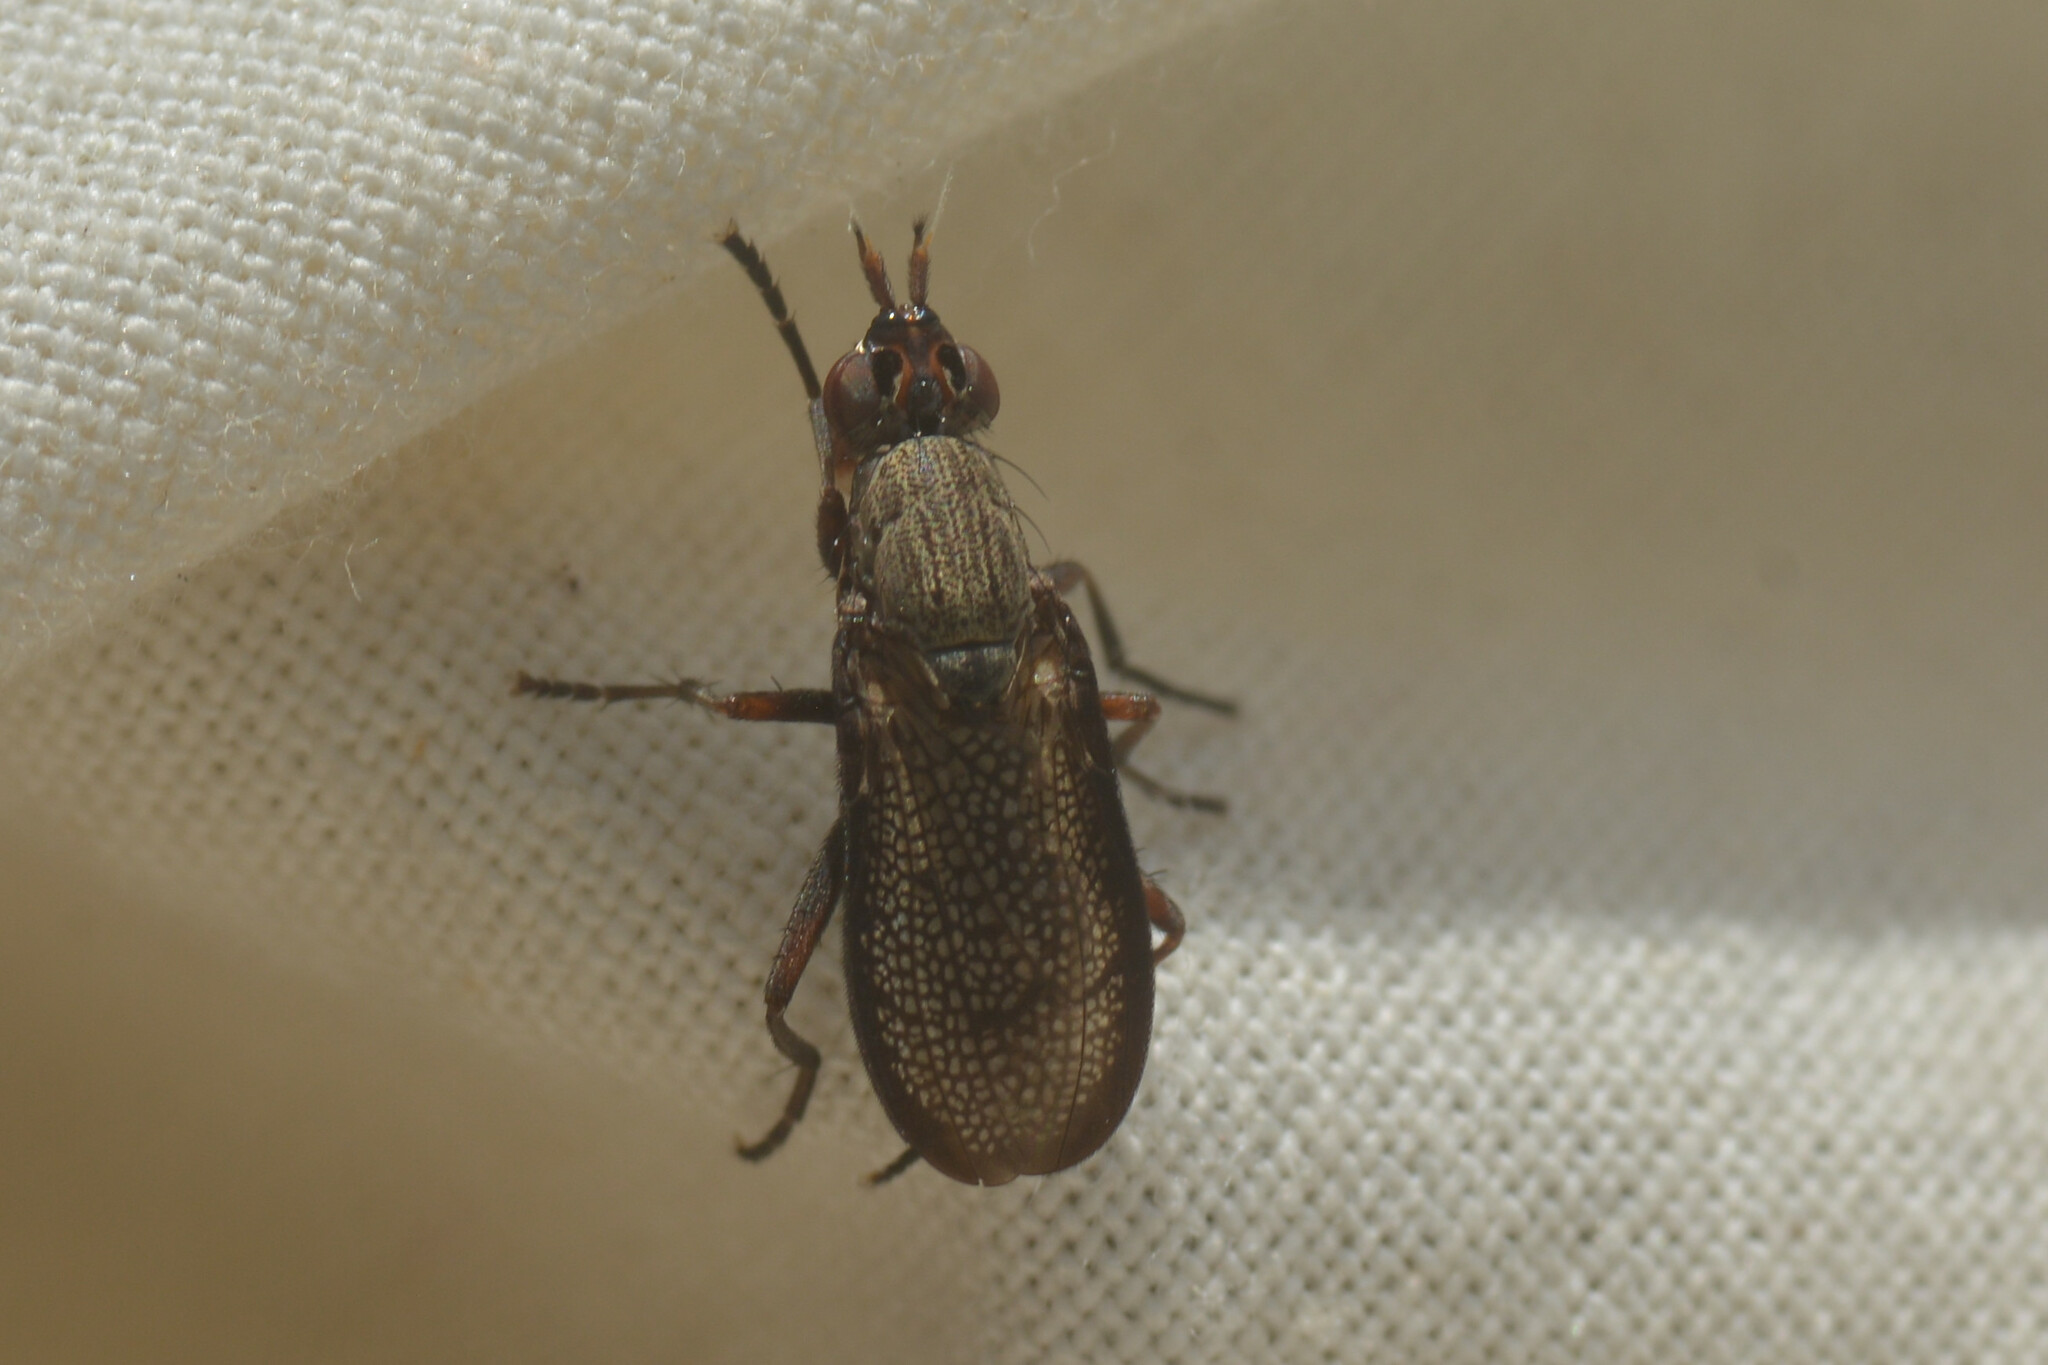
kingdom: Animalia
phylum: Arthropoda
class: Insecta
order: Diptera
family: Sciomyzidae
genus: Coremacera
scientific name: Coremacera marginata
